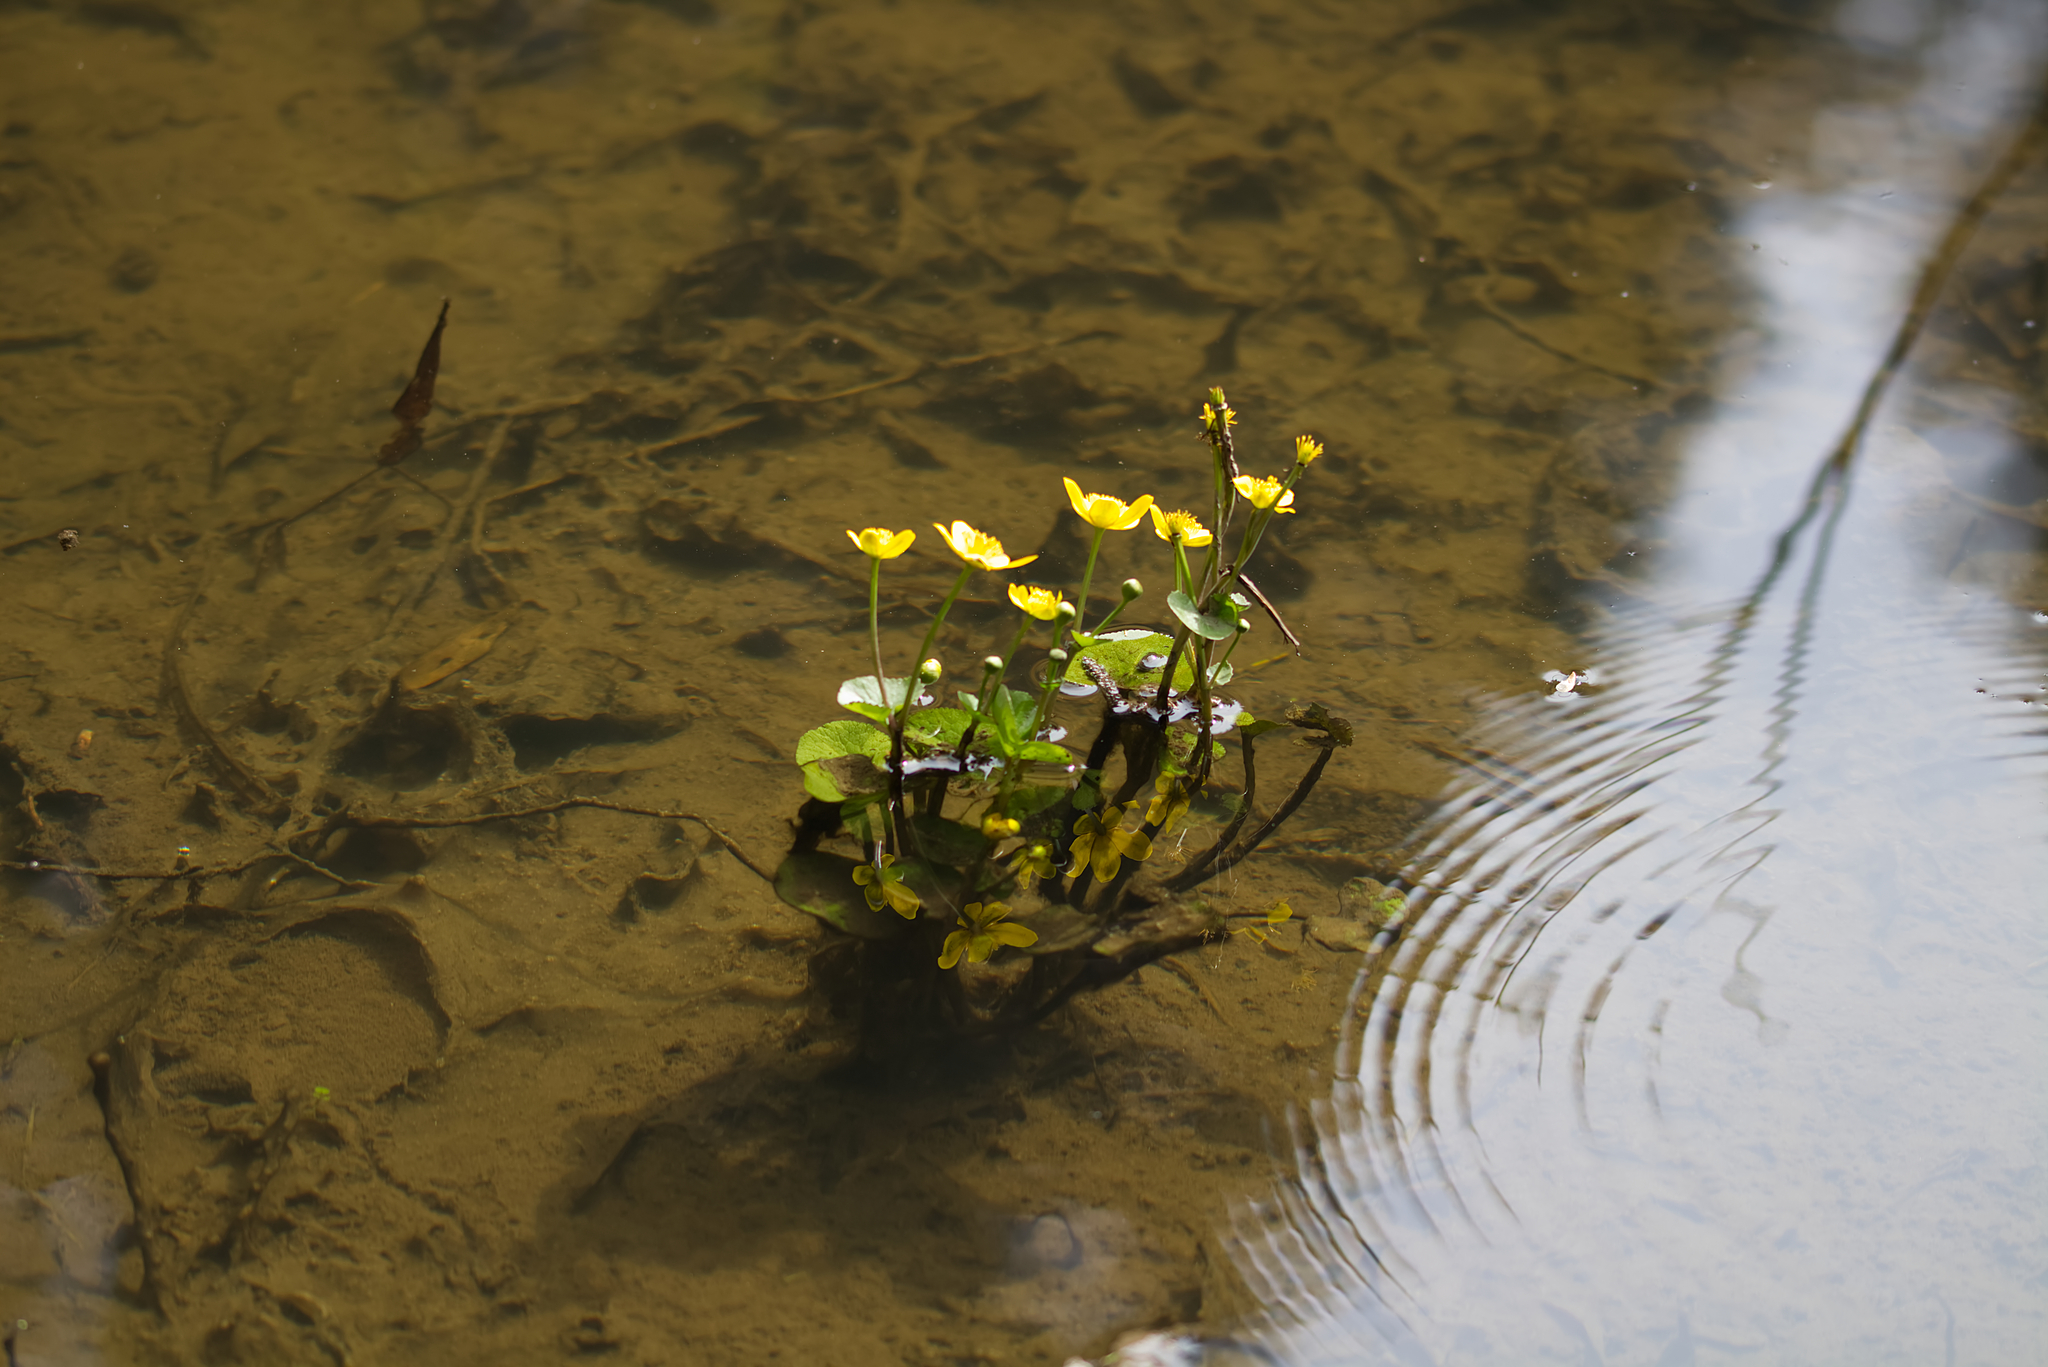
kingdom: Plantae
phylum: Tracheophyta
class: Magnoliopsida
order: Ranunculales
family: Ranunculaceae
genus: Caltha
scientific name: Caltha palustris
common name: Marsh marigold
